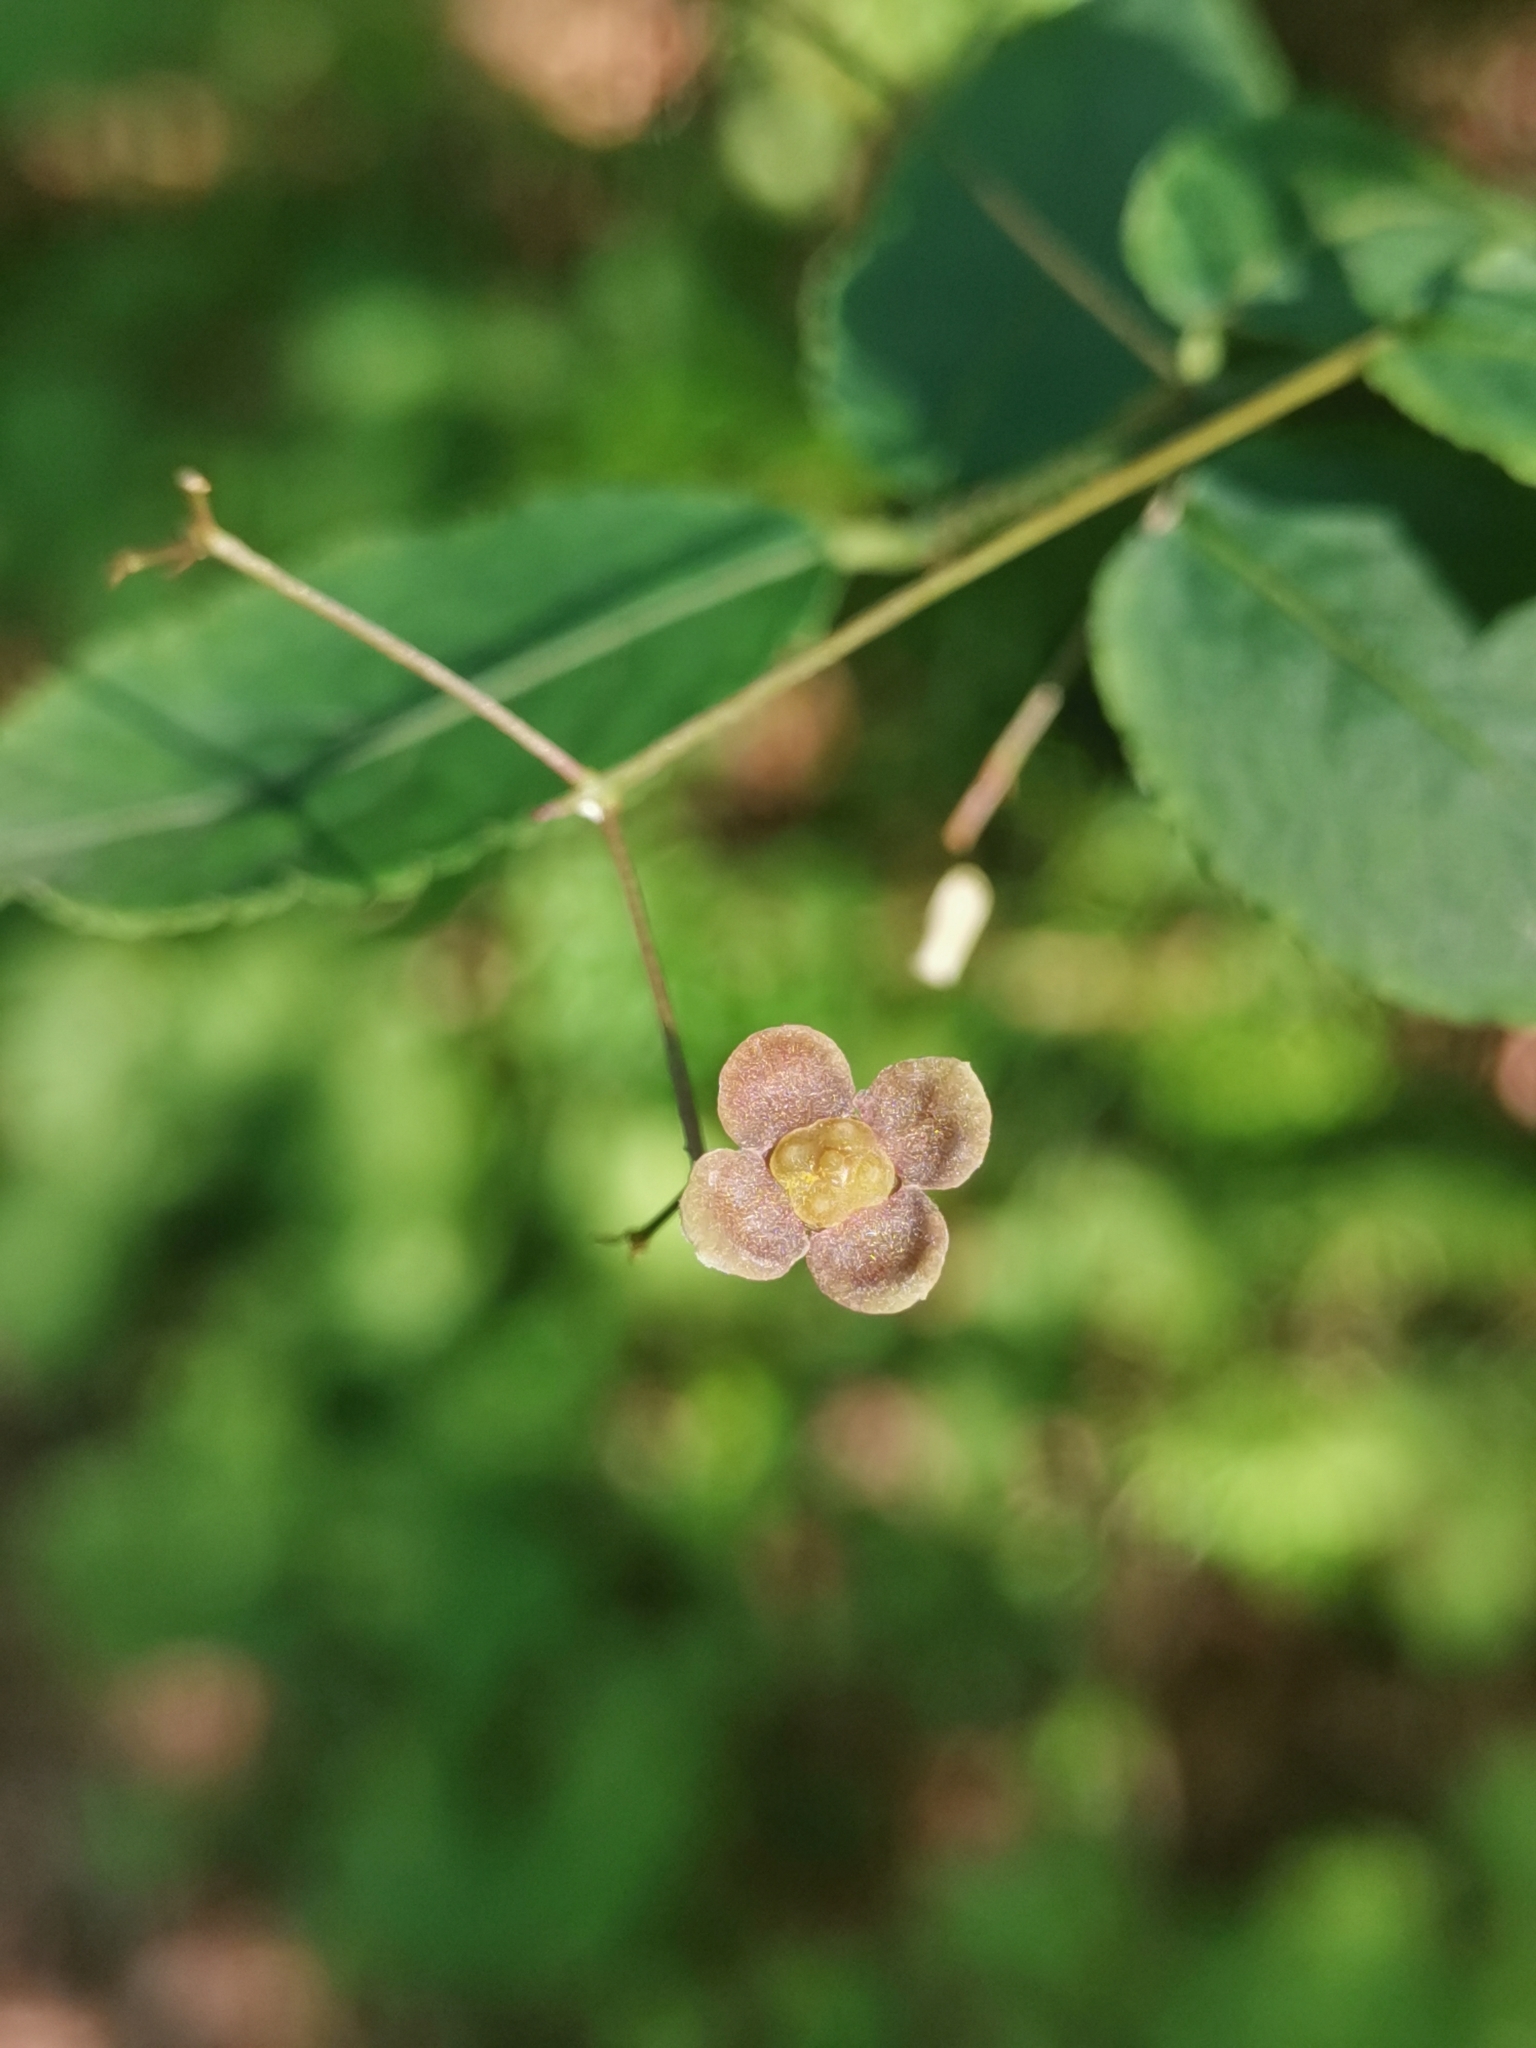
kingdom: Plantae
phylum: Tracheophyta
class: Magnoliopsida
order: Celastrales
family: Celastraceae
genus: Euonymus
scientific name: Euonymus verrucosus
